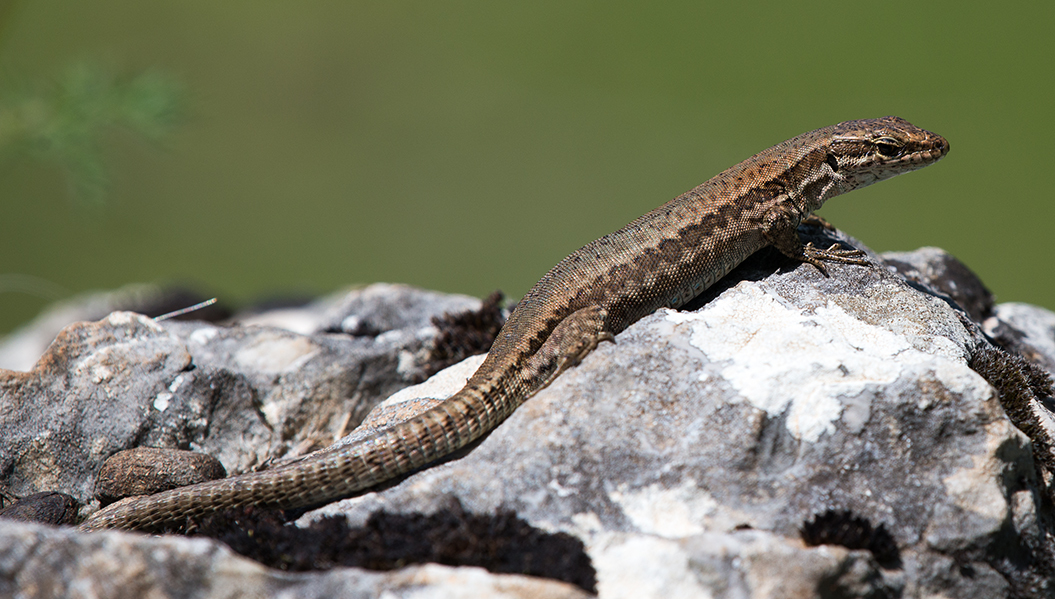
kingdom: Animalia
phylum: Chordata
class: Squamata
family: Lacertidae
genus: Podarcis
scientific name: Podarcis muralis
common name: Common wall lizard
